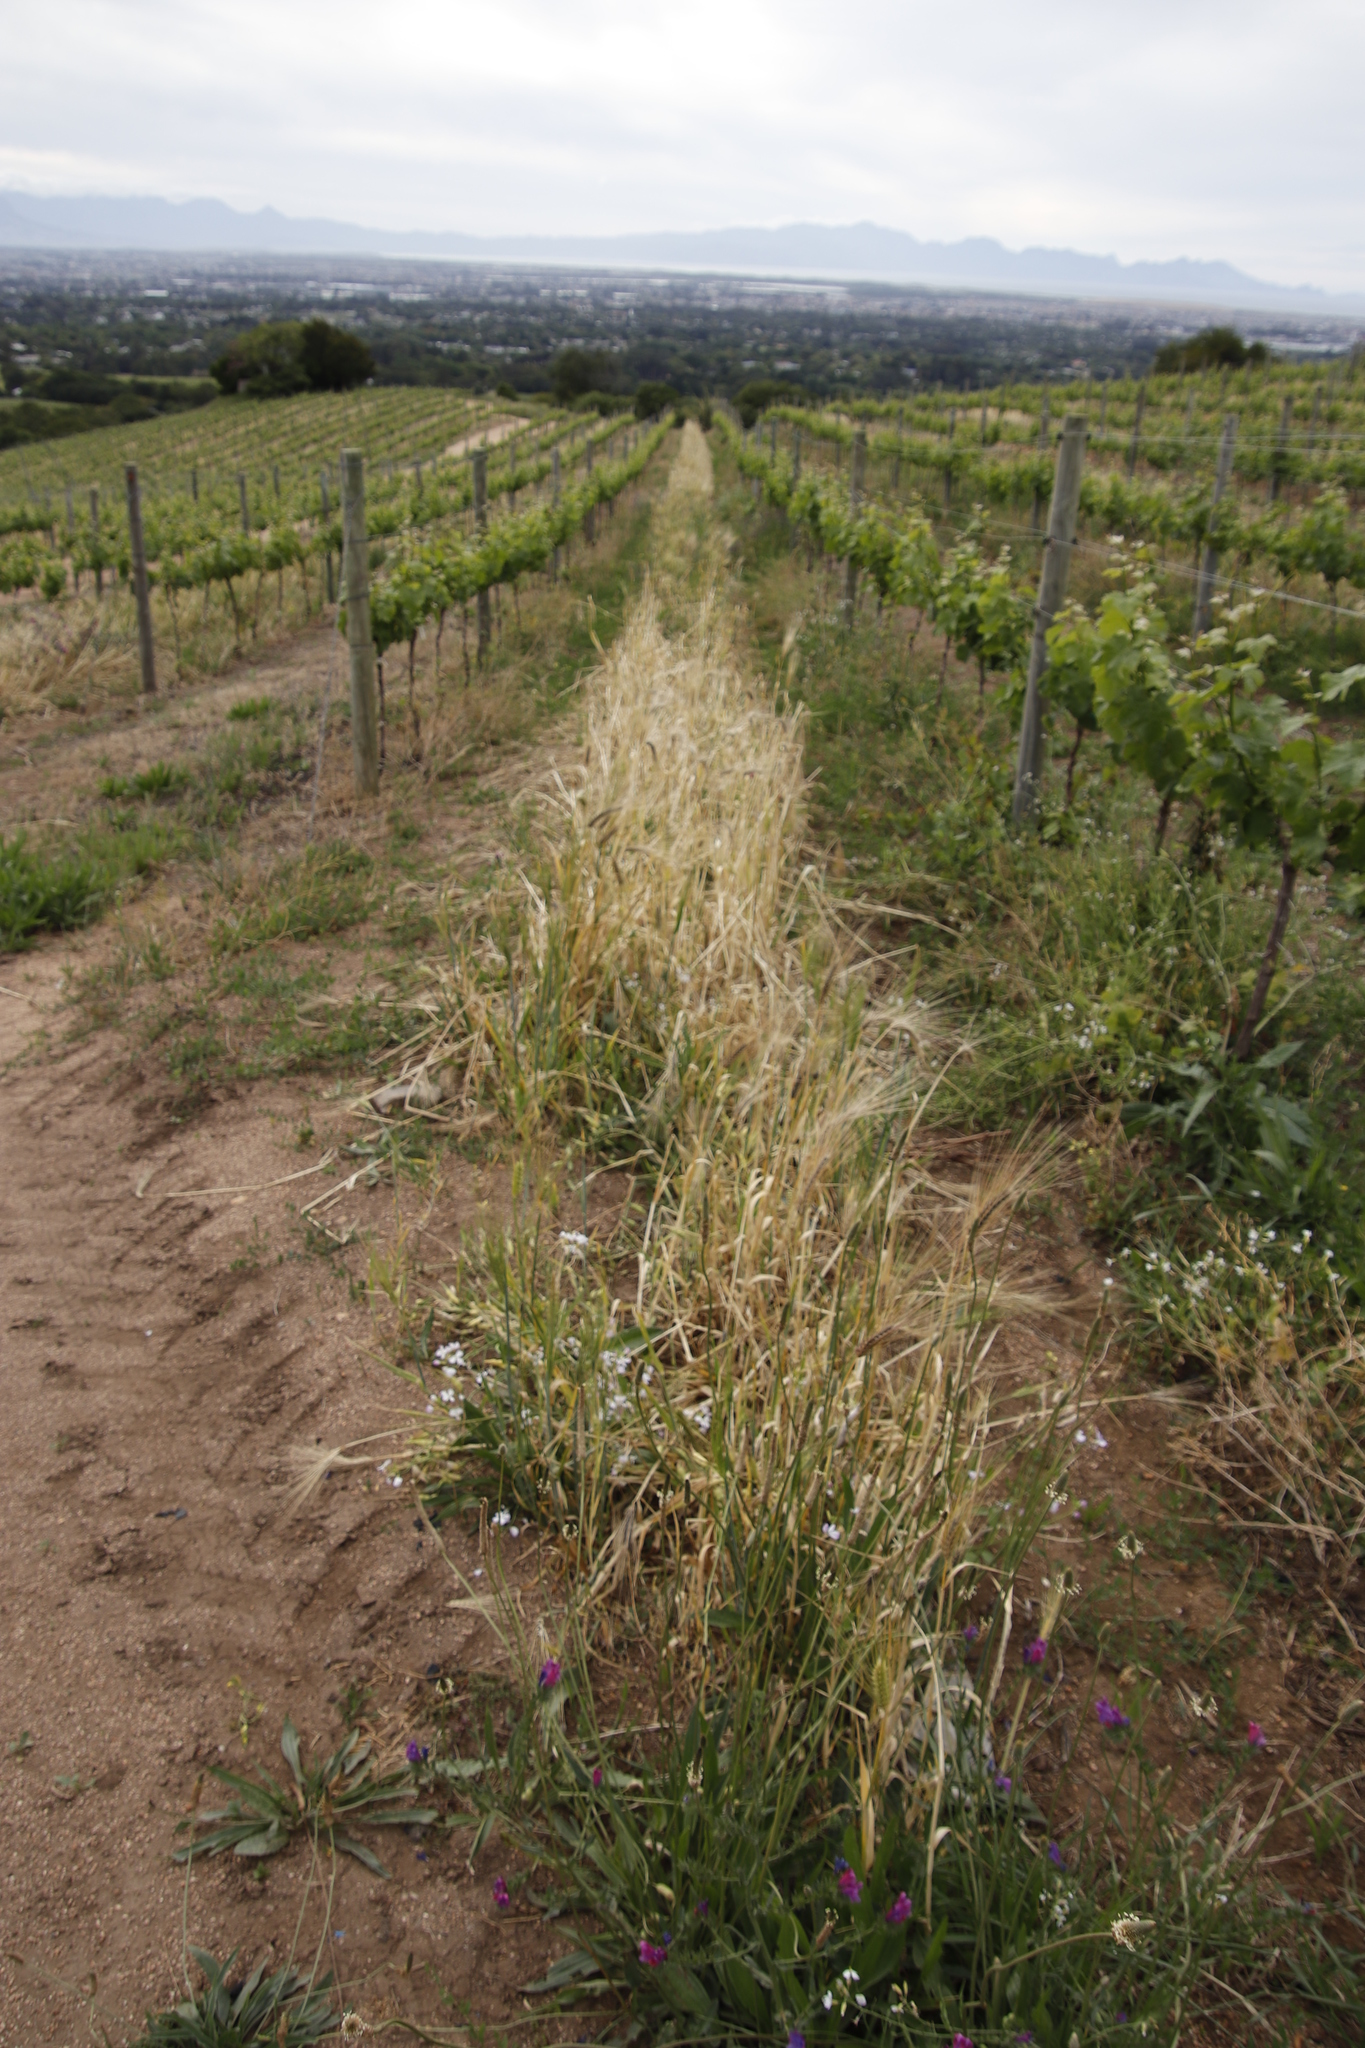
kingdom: Plantae
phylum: Tracheophyta
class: Liliopsida
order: Poales
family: Poaceae
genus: Hordeum
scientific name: Hordeum murinum
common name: Wall barley
